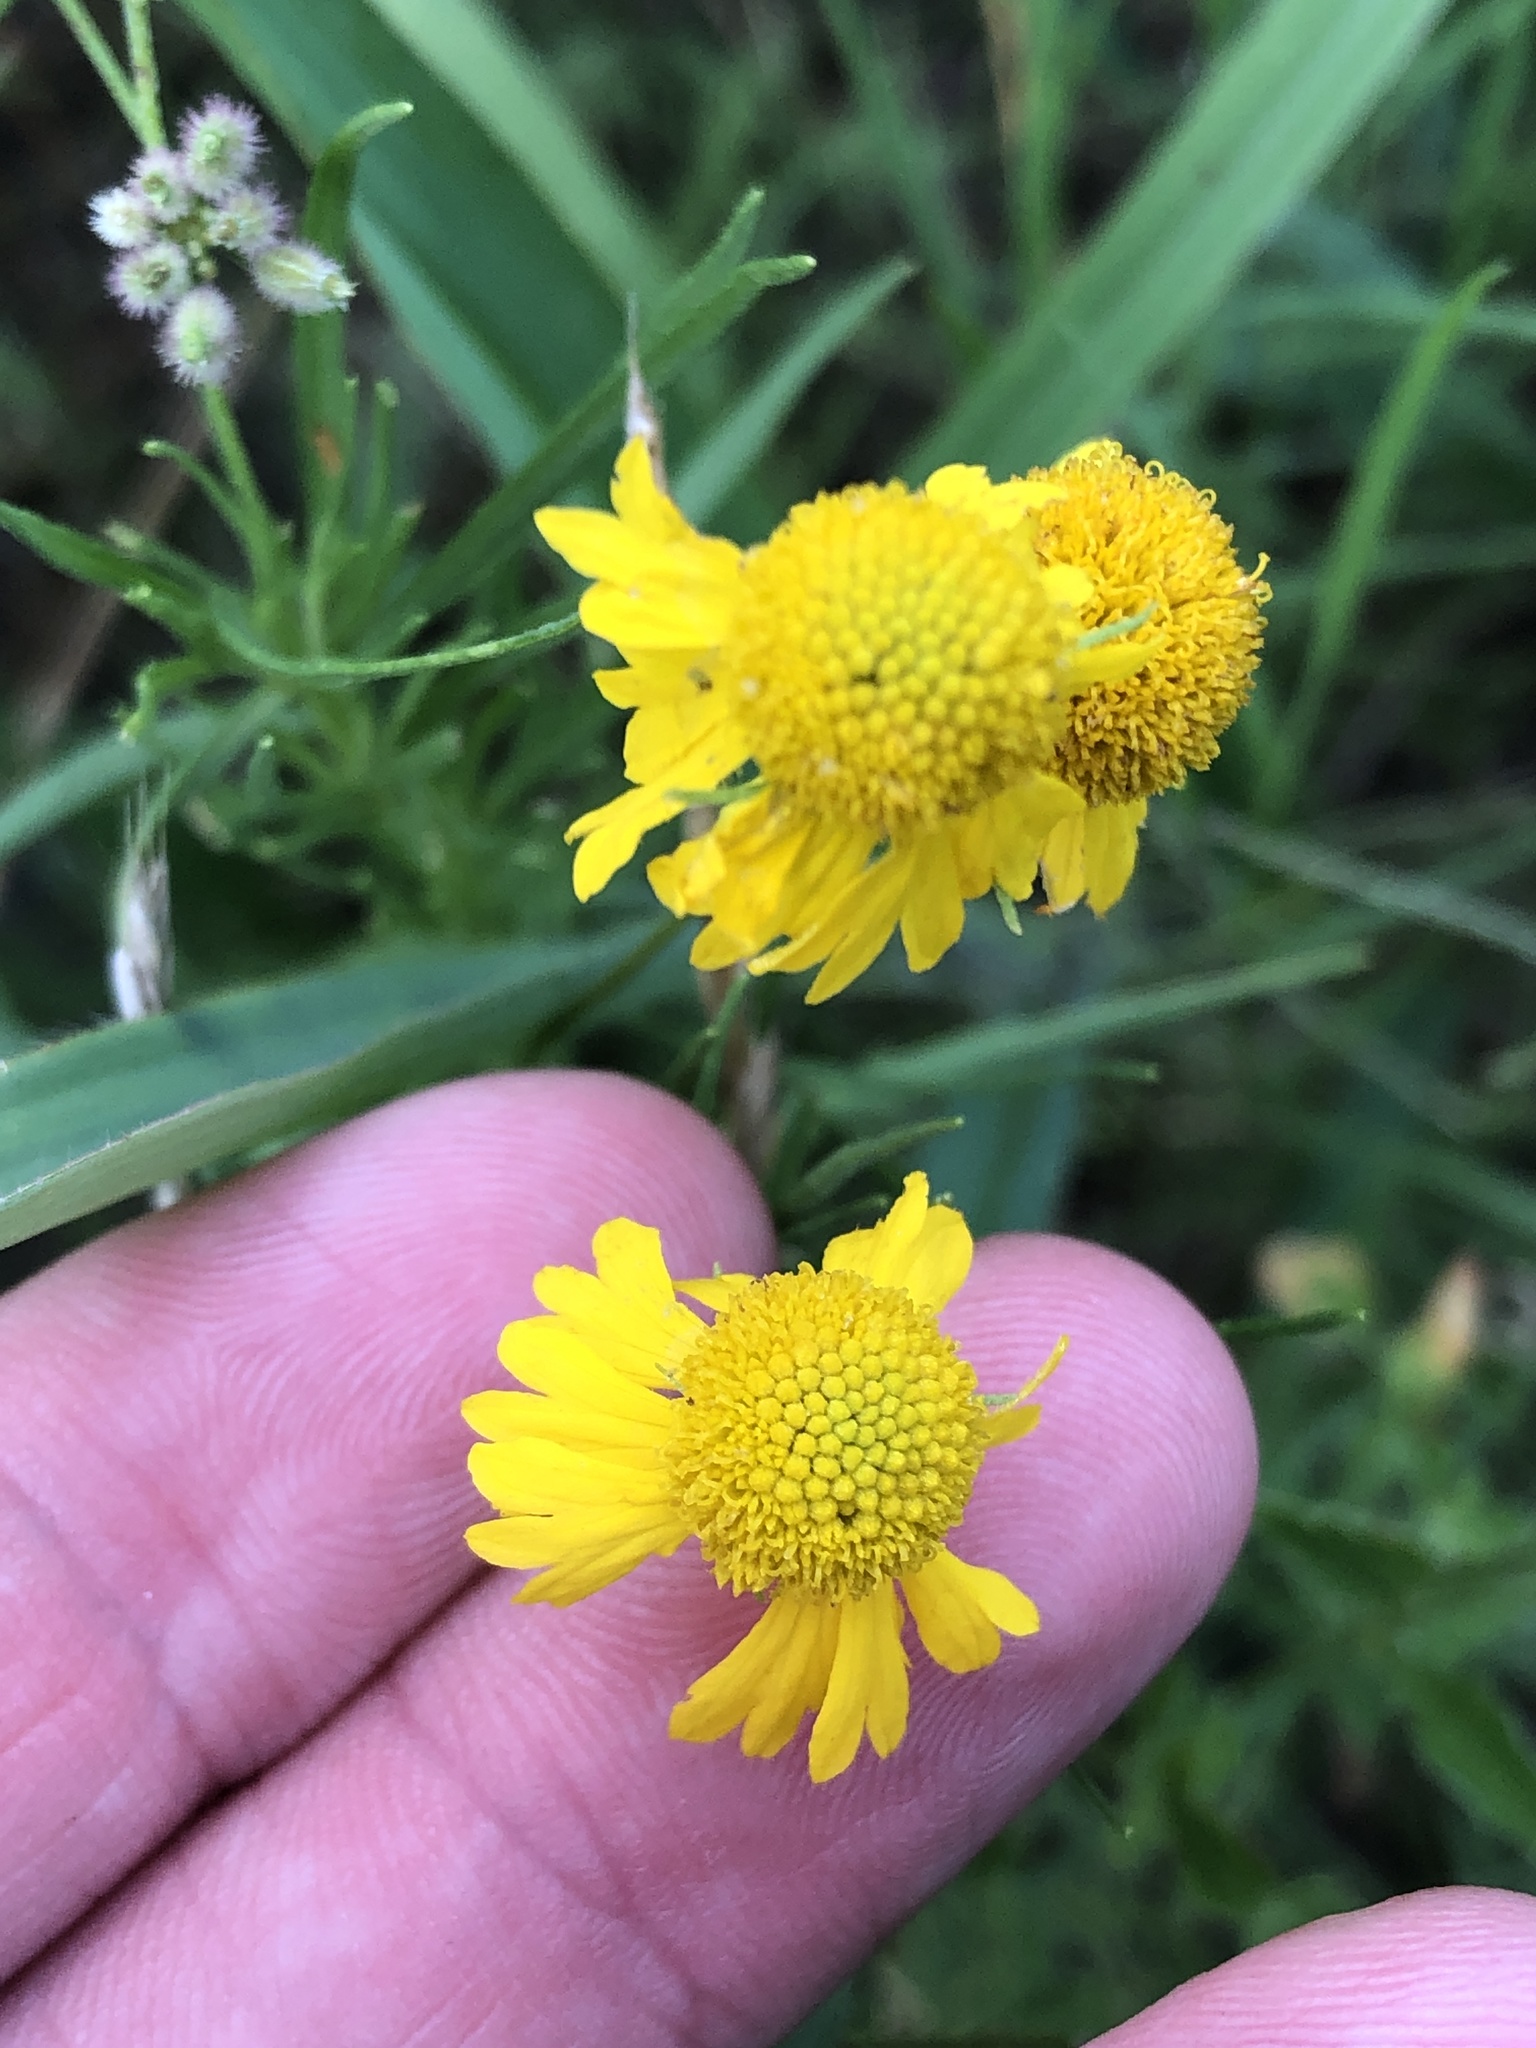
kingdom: Plantae
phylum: Tracheophyta
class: Magnoliopsida
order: Asterales
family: Asteraceae
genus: Helenium
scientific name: Helenium amarum
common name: Bitter sneezeweed
